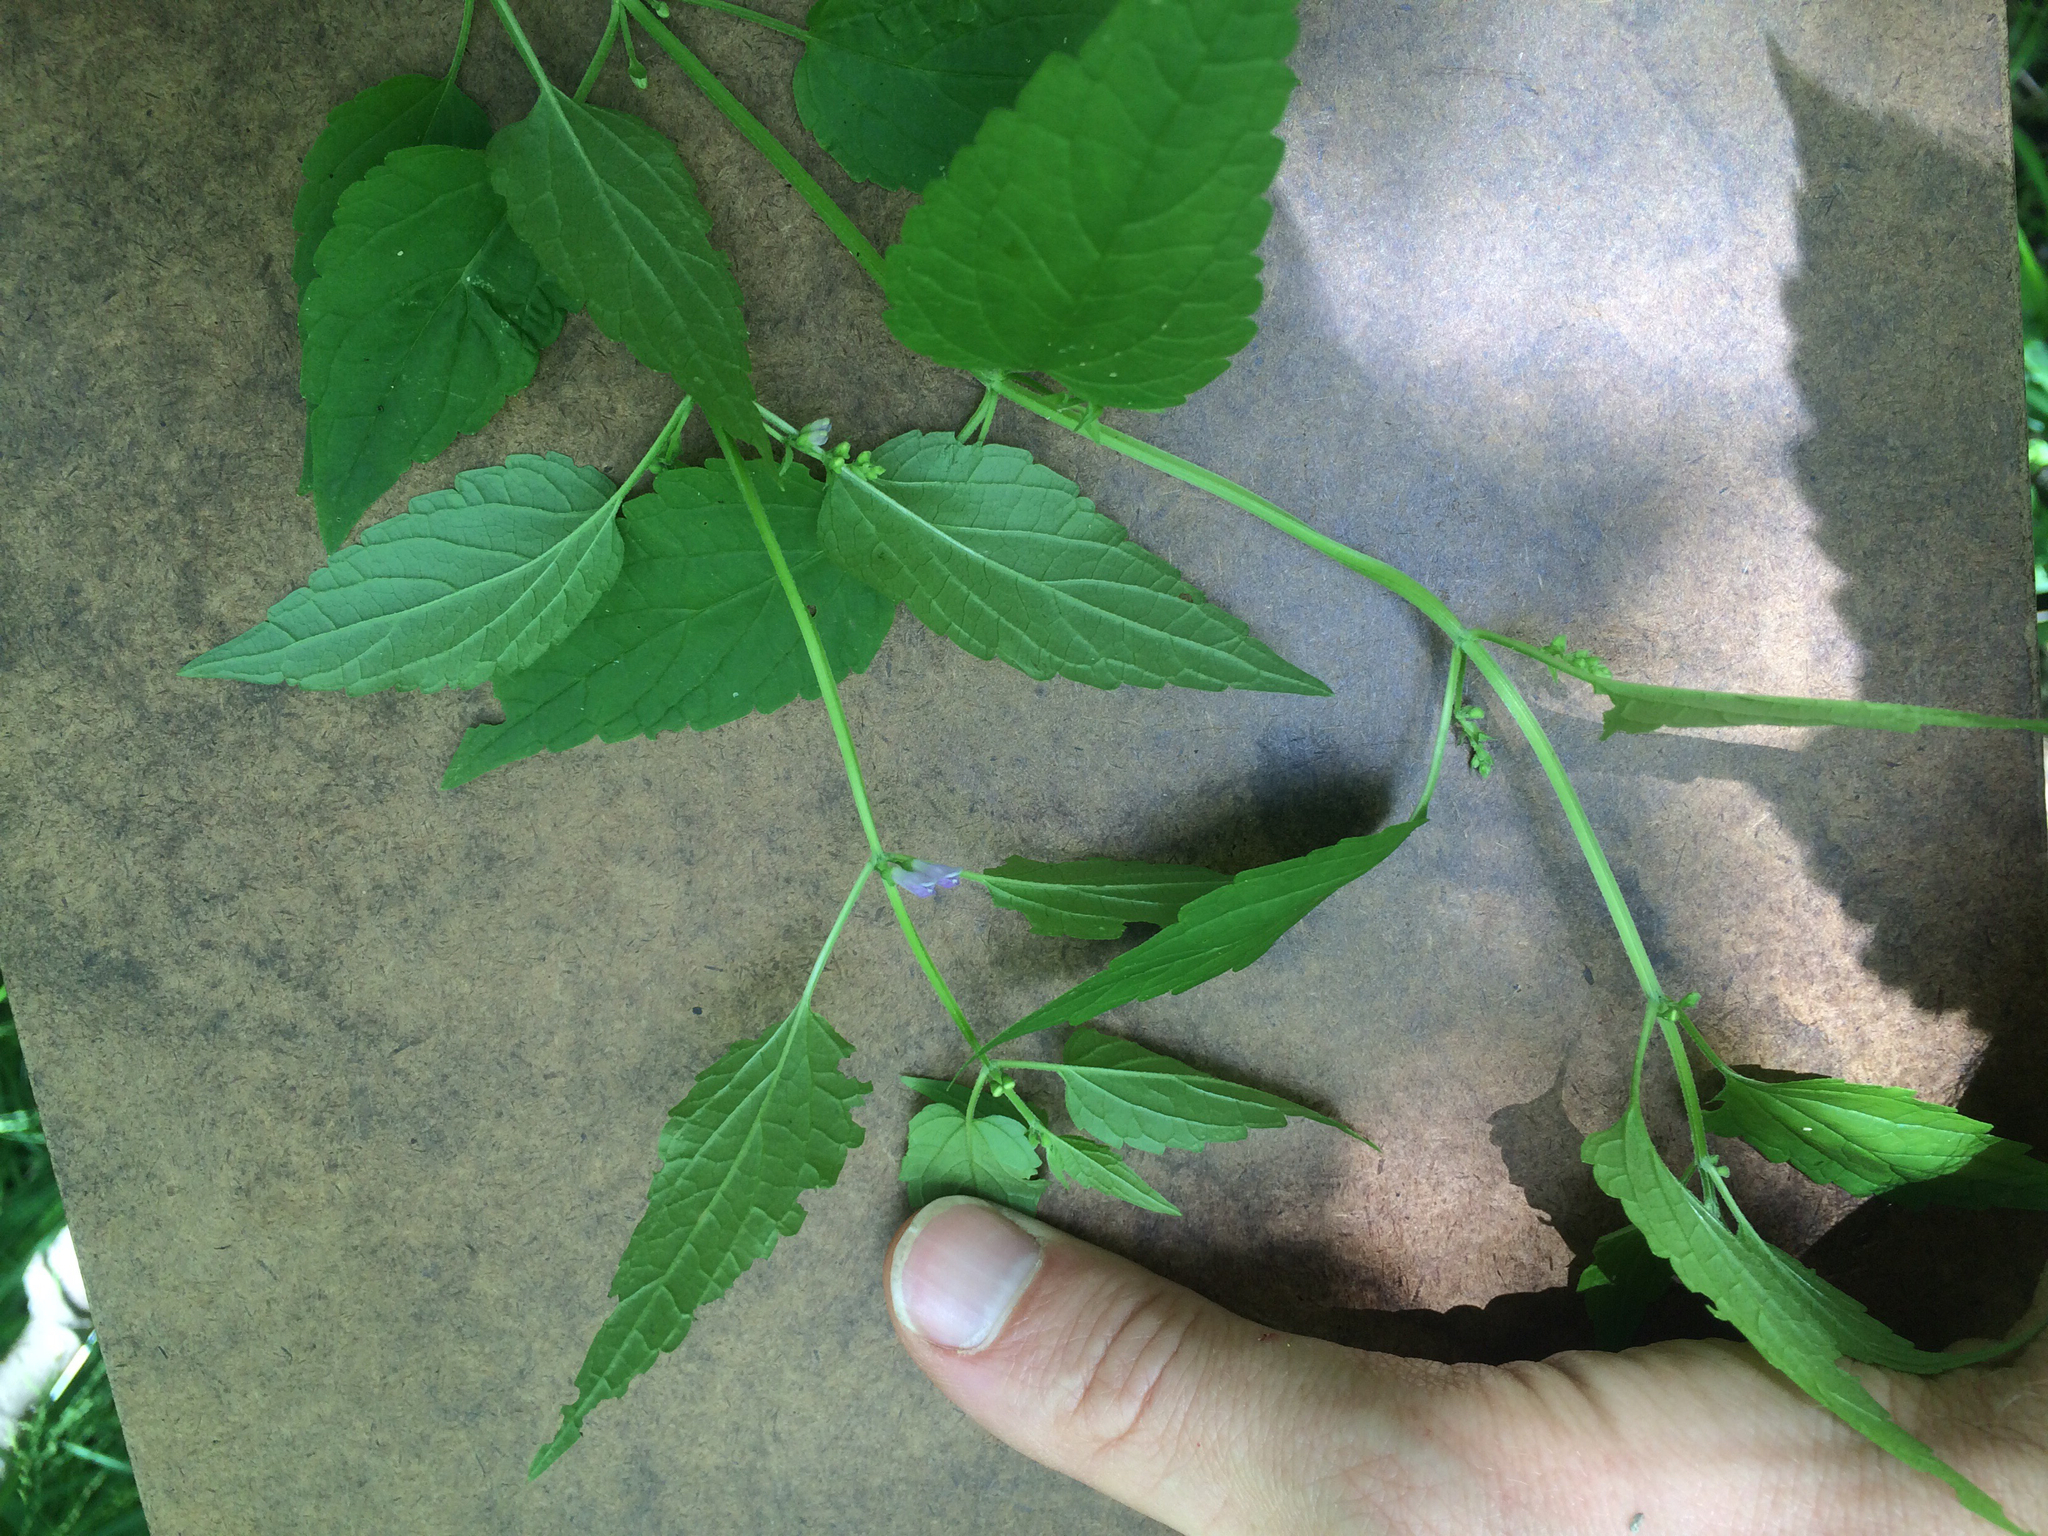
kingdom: Plantae
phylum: Tracheophyta
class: Magnoliopsida
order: Lamiales
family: Lamiaceae
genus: Scutellaria
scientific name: Scutellaria lateriflora
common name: Blue skullcap
